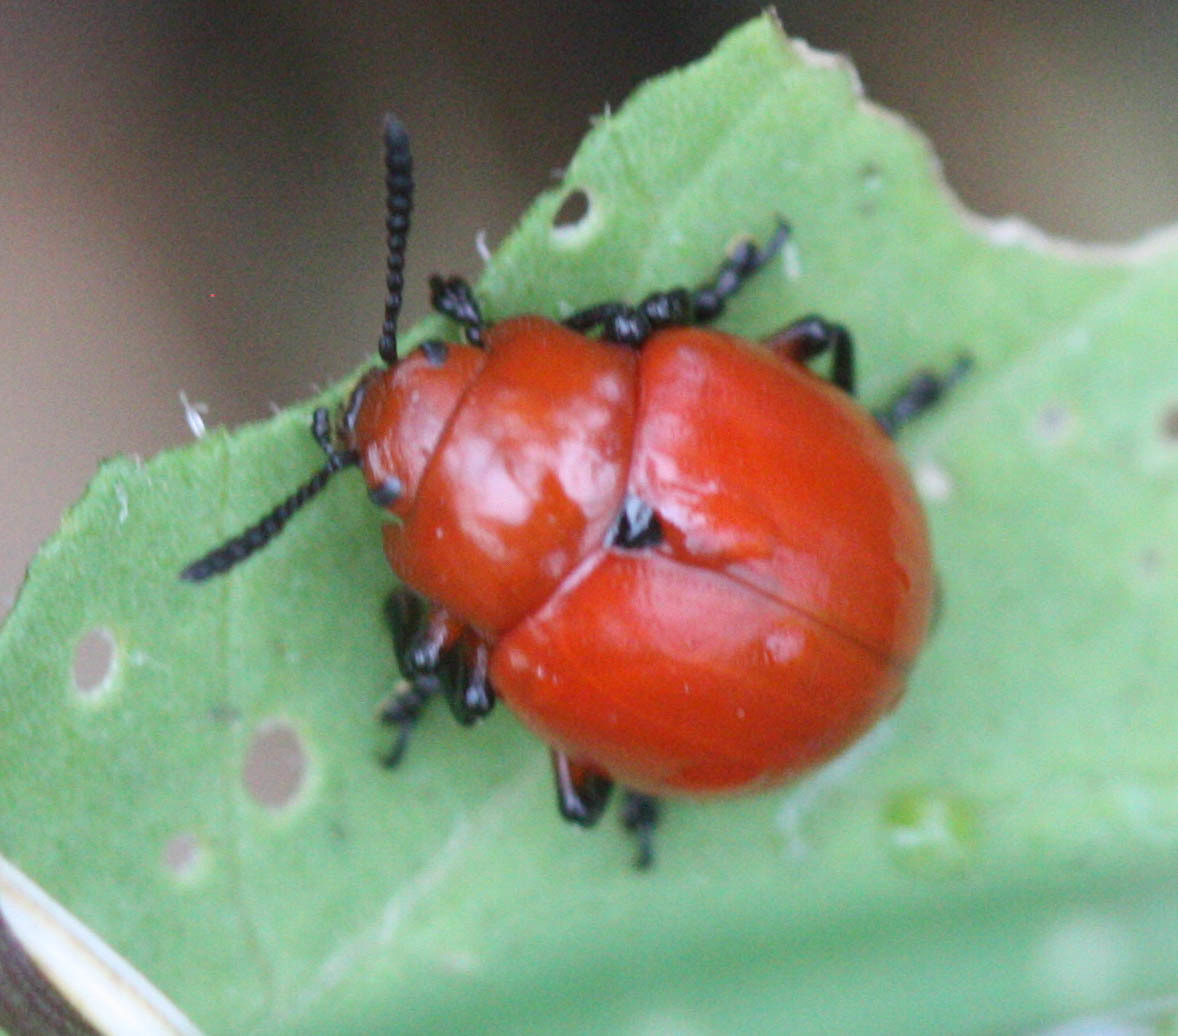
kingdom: Animalia
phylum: Arthropoda
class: Insecta
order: Coleoptera
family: Chrysomelidae
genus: Leptinotarsa
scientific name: Leptinotarsa rubiginosa
